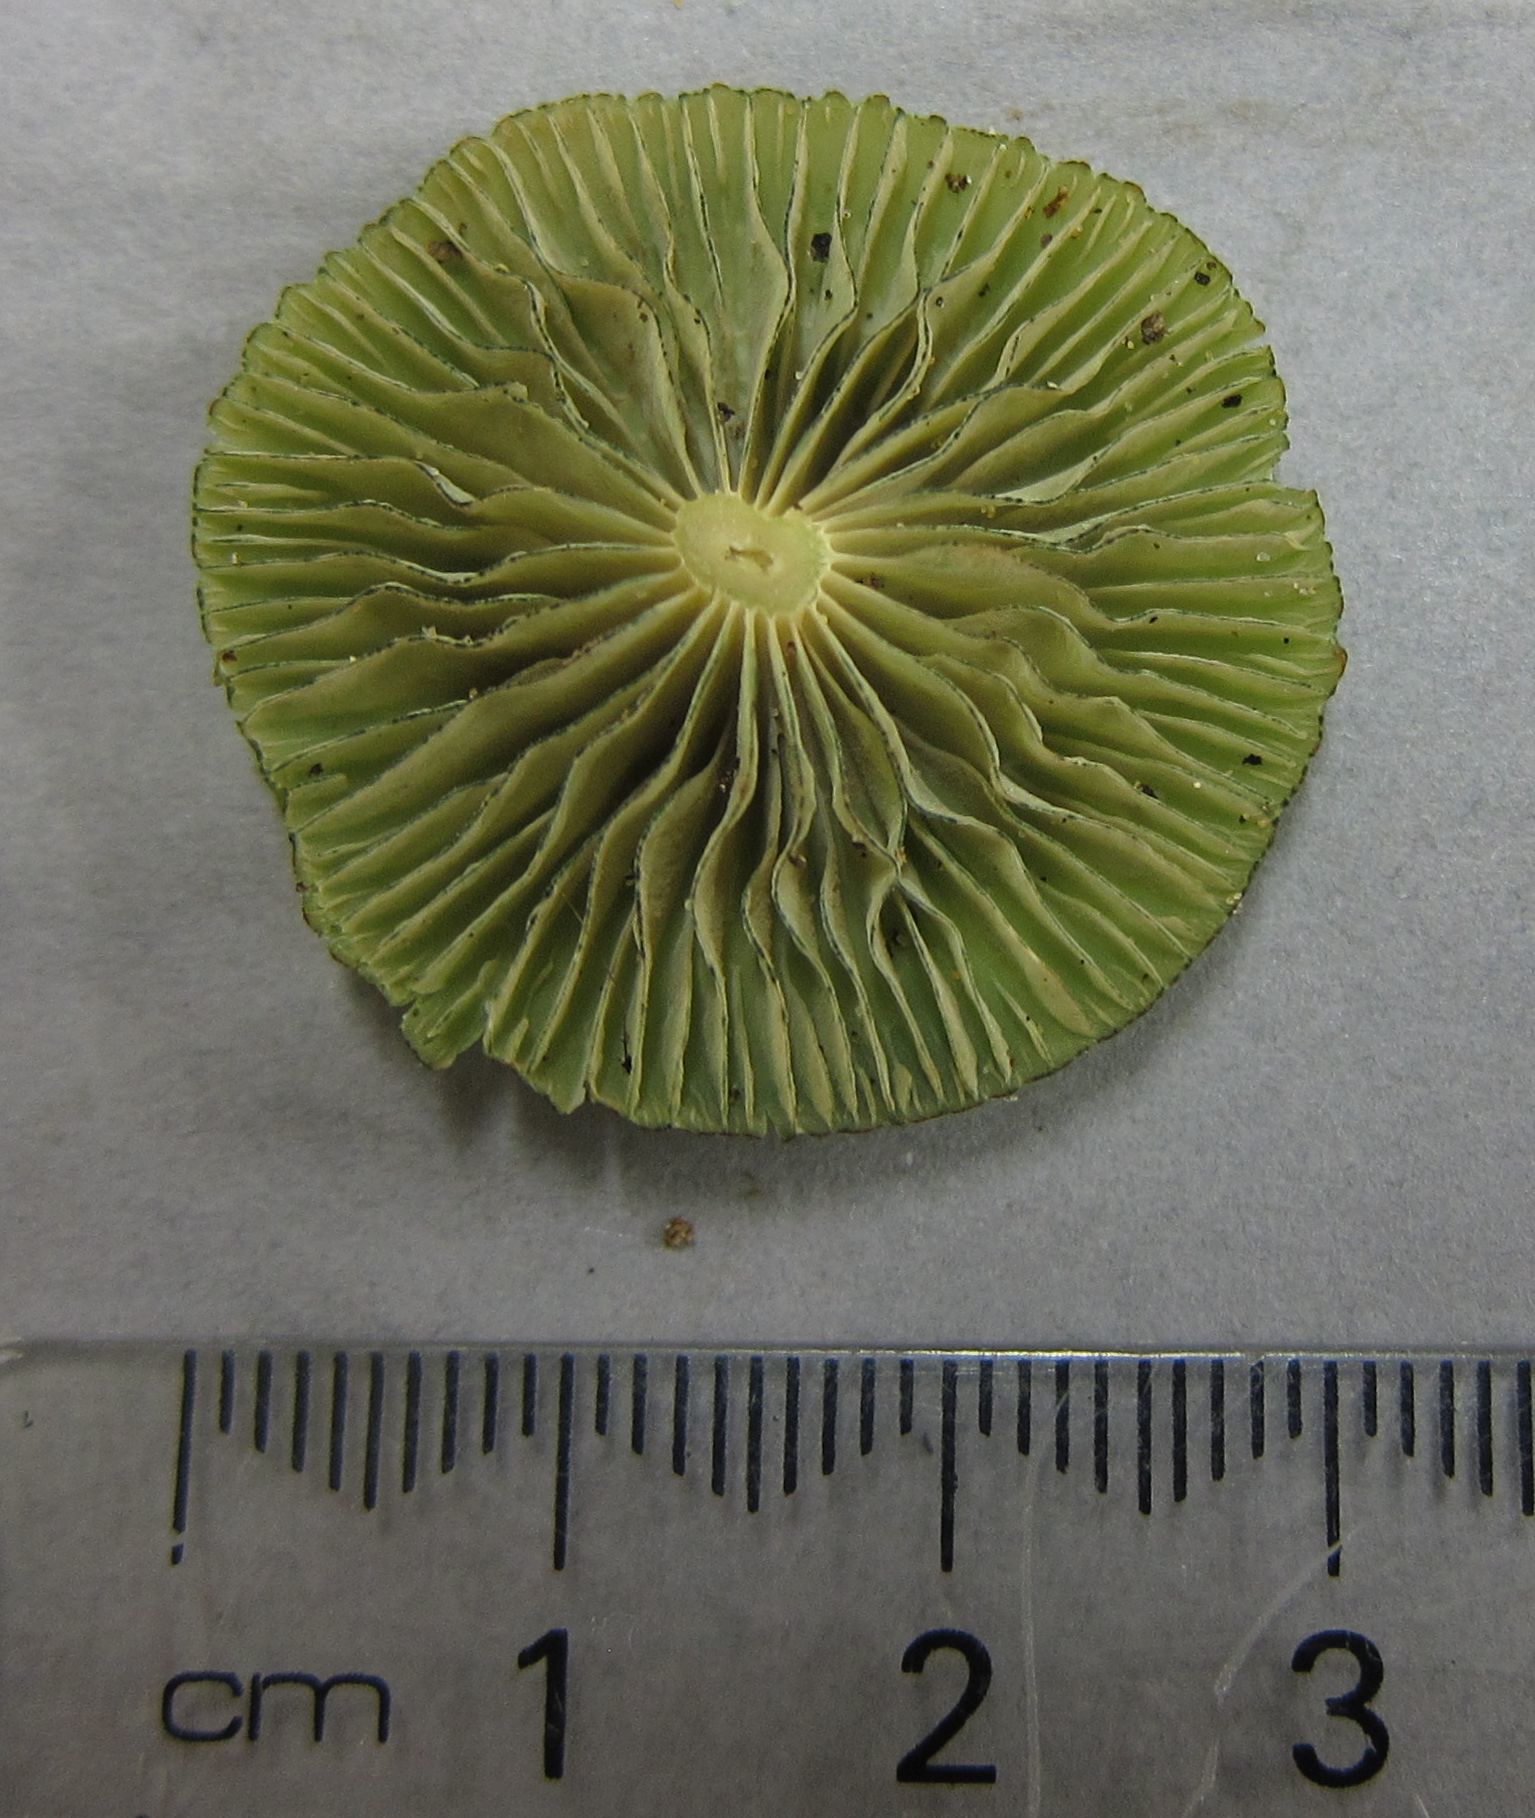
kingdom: Fungi
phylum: Basidiomycota
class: Agaricomycetes
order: Agaricales
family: Entolomataceae
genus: Entoloma
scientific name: Entoloma viridomarginatum
